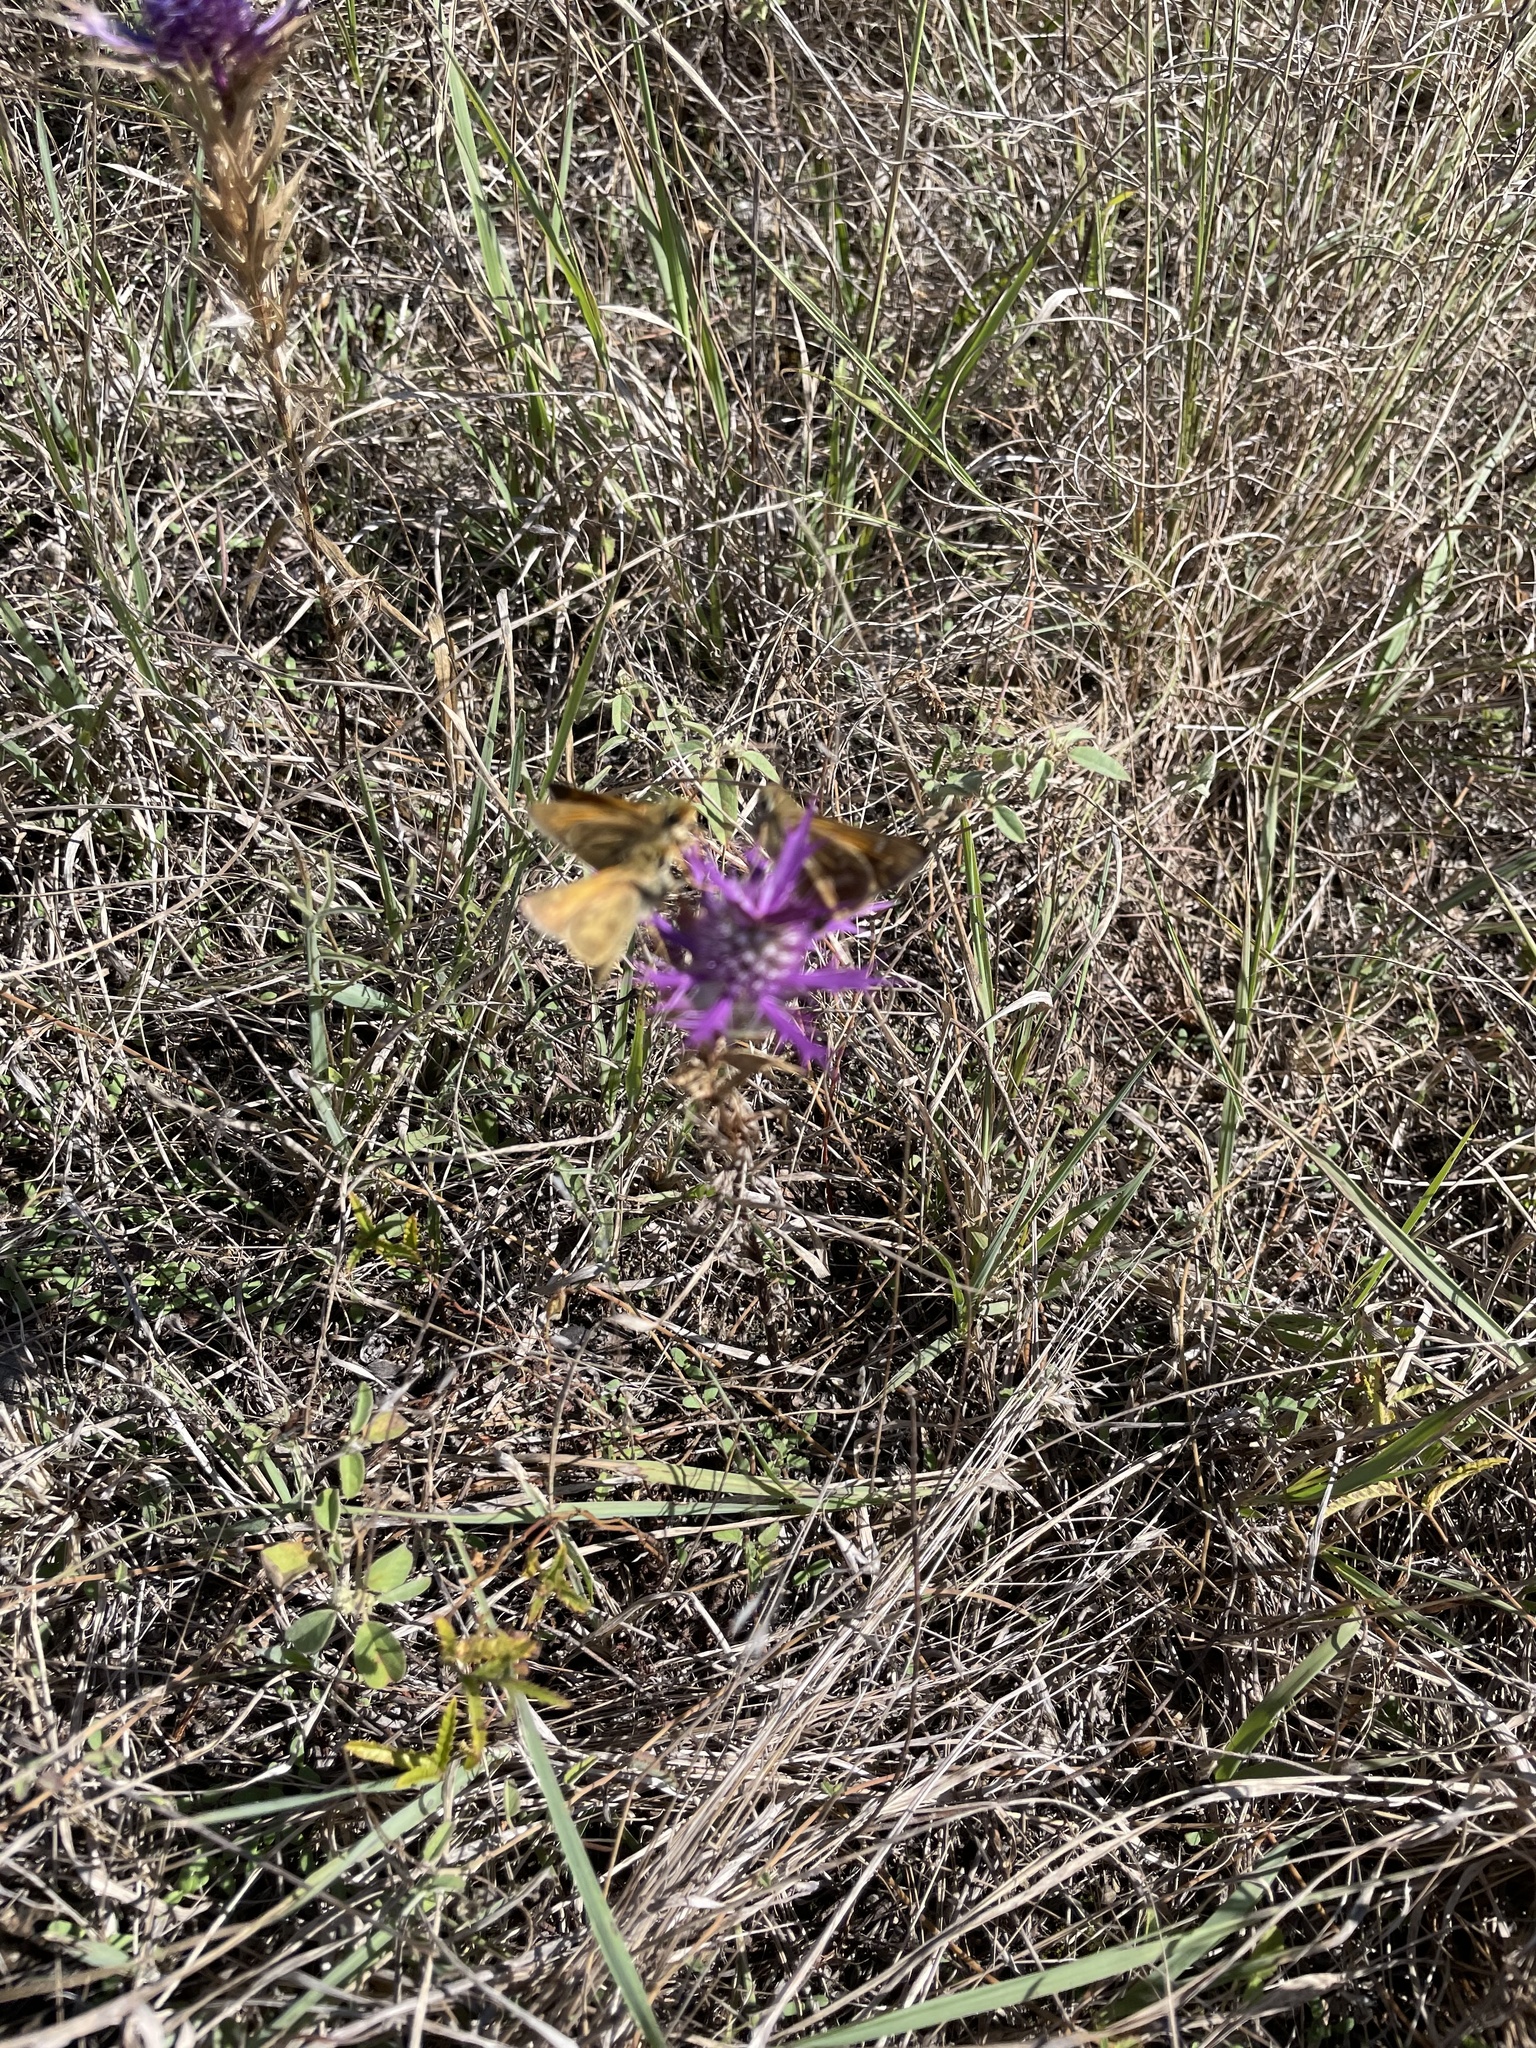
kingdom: Animalia
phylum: Arthropoda
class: Insecta
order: Lepidoptera
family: Hesperiidae
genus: Atalopedes
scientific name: Atalopedes
